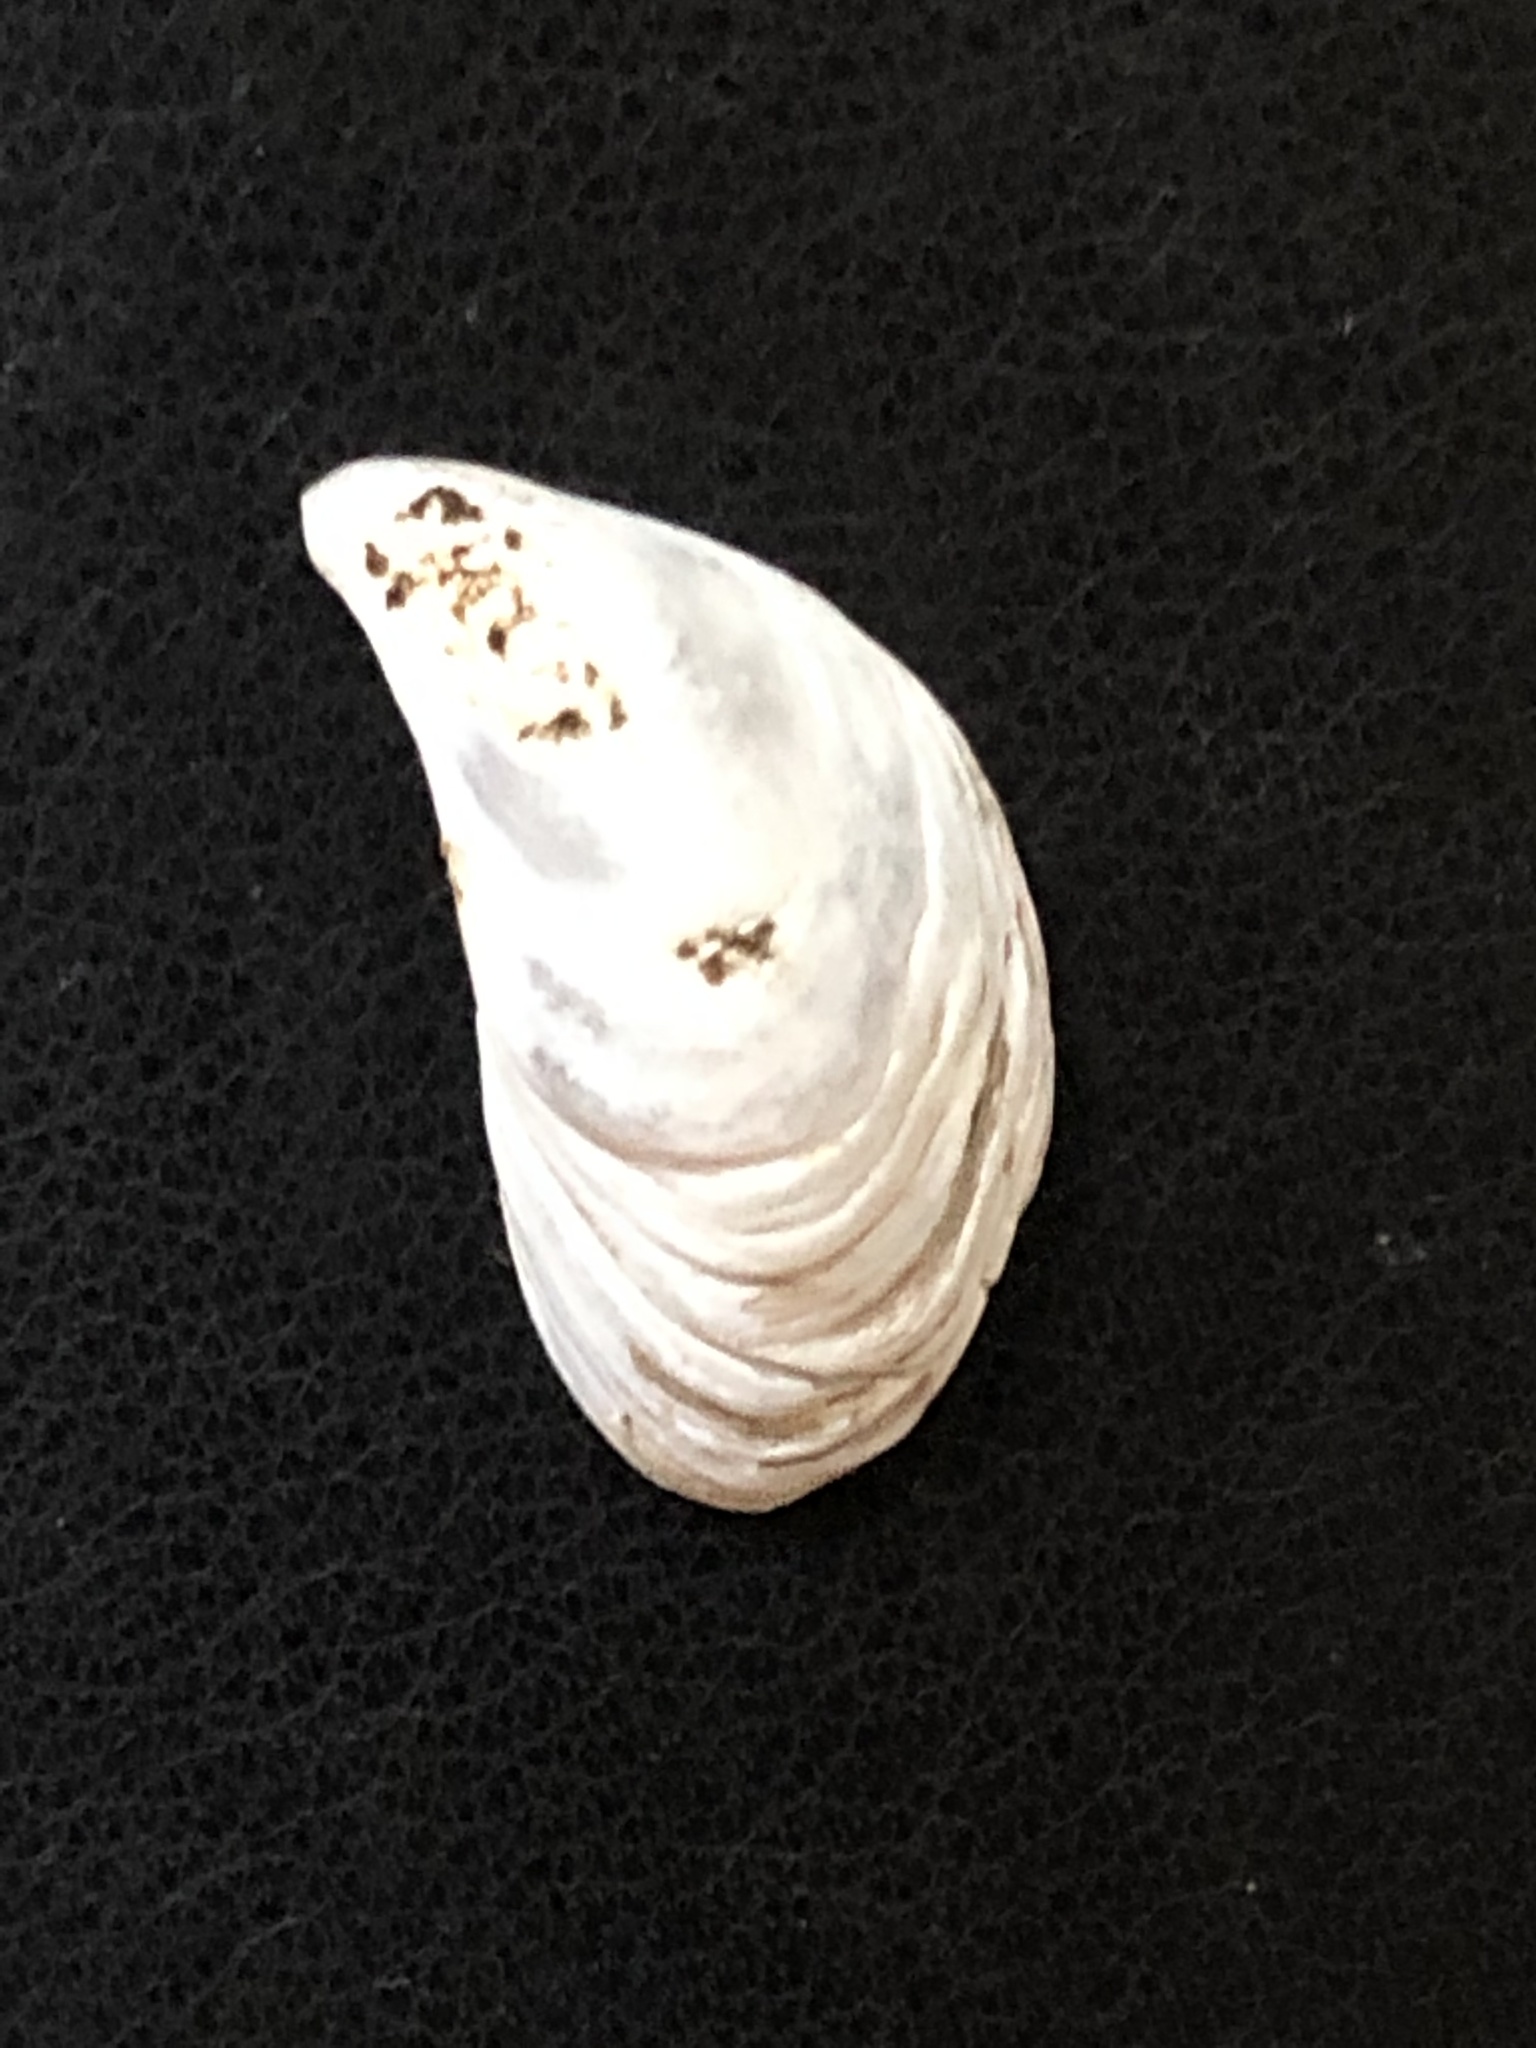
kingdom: Animalia
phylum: Mollusca
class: Bivalvia
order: Myida
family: Dreissenidae
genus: Dreissena
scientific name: Dreissena bugensis
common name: Quagga mussel
